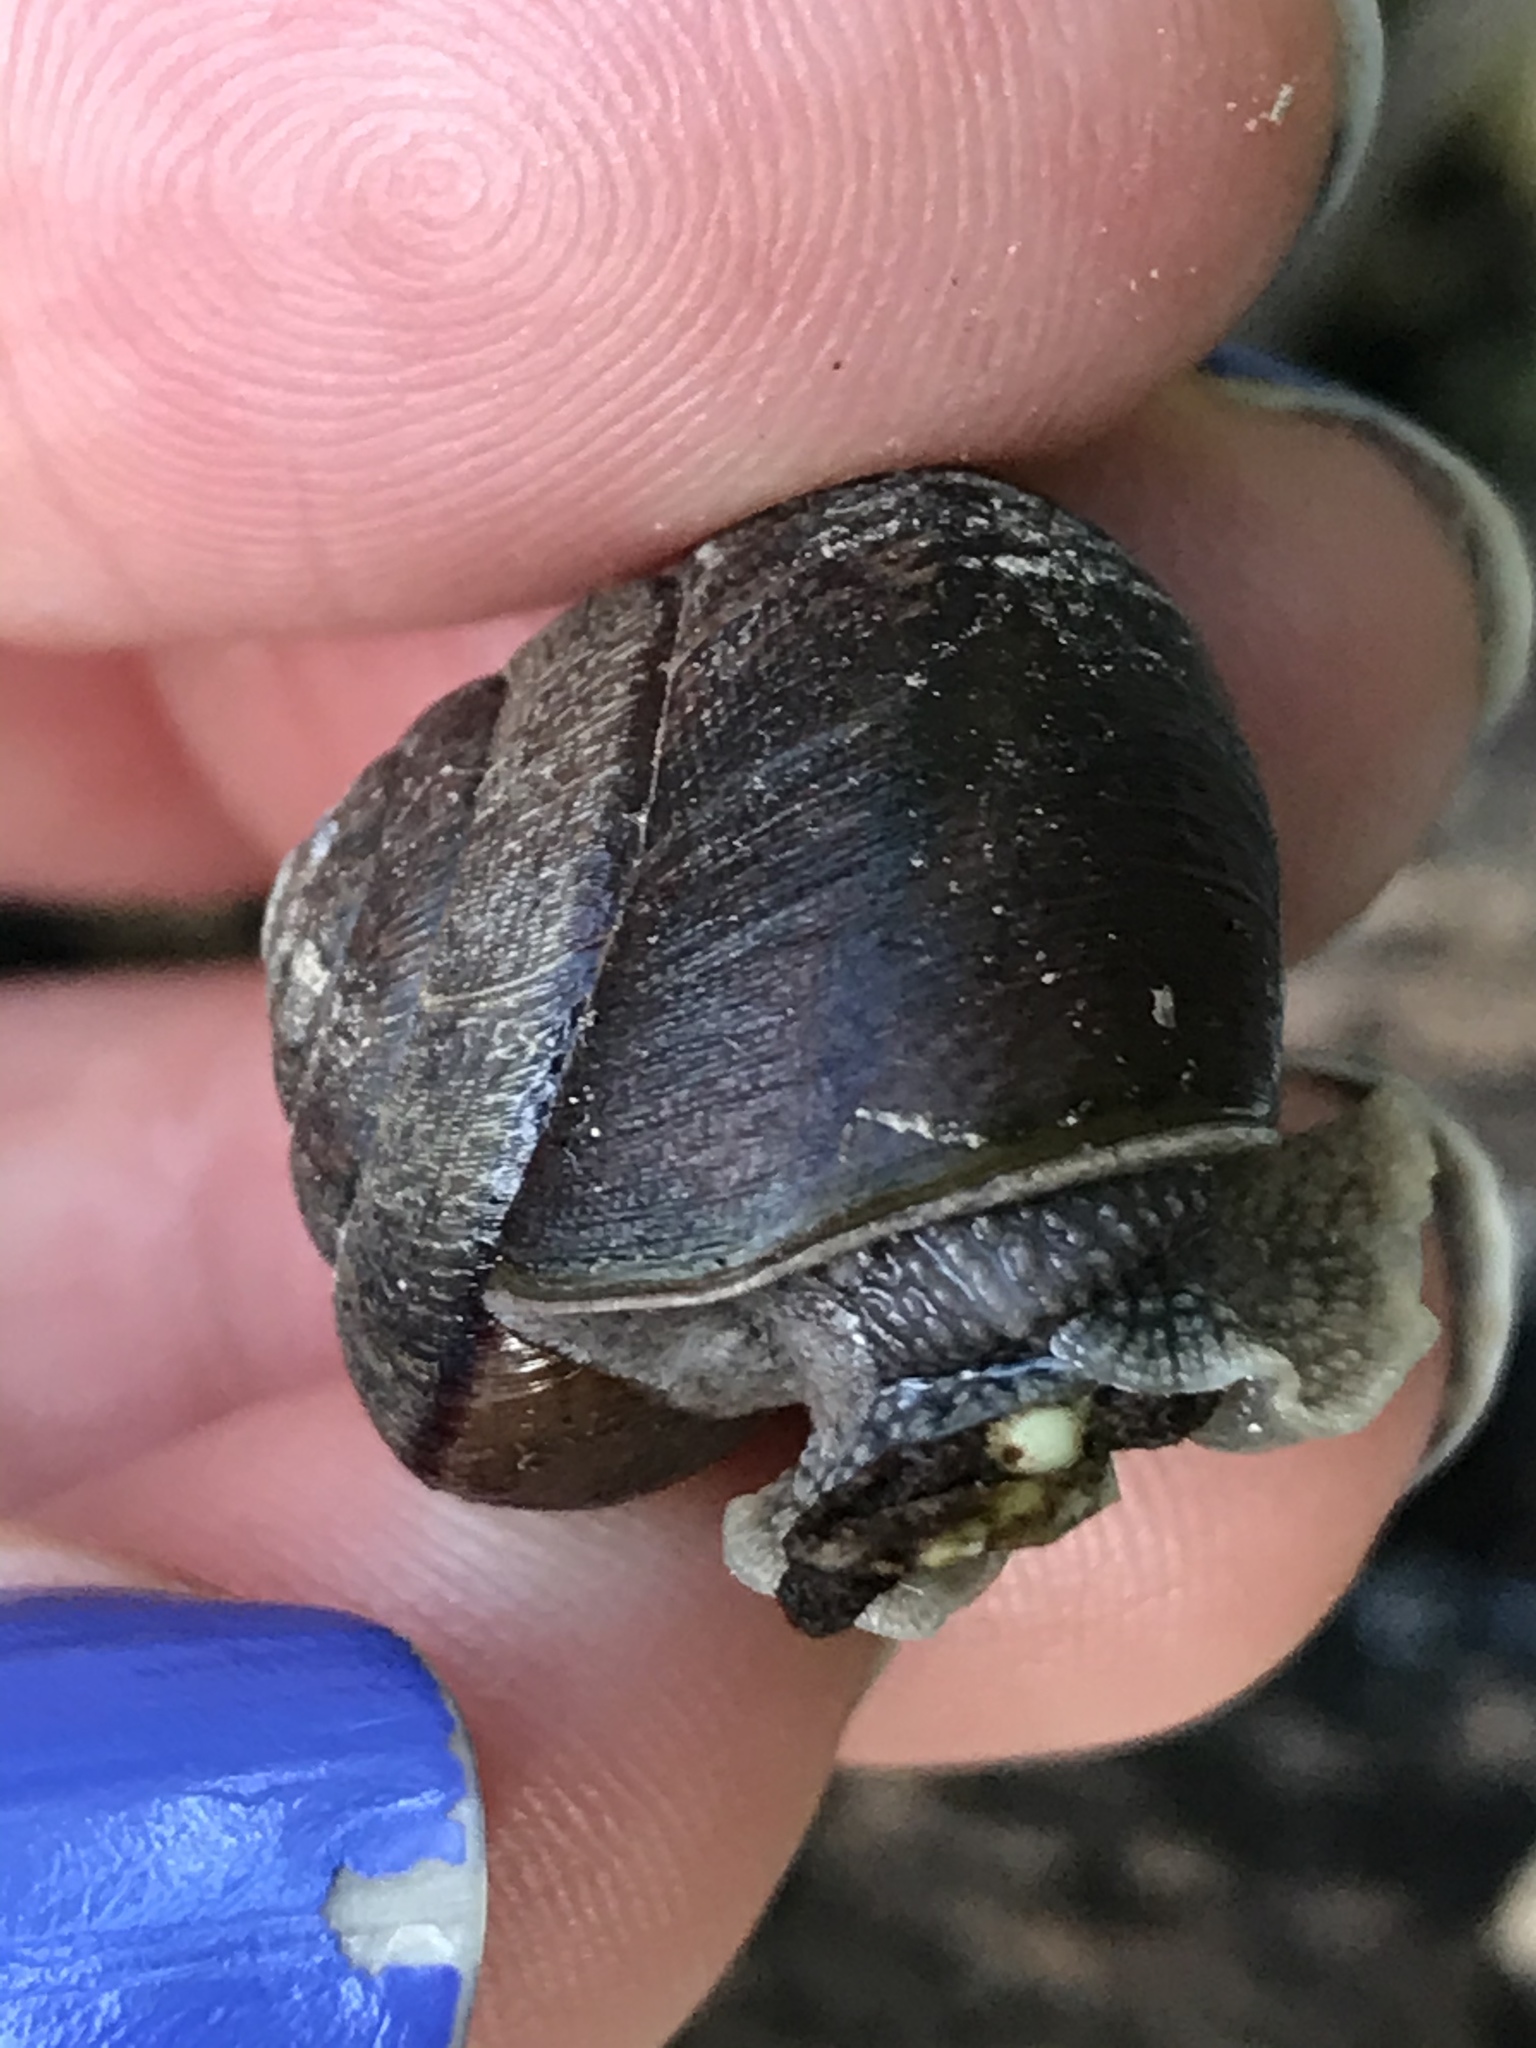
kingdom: Animalia
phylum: Mollusca
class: Gastropoda
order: Stylommatophora
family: Xanthonychidae
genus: Helminthoglypta
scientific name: Helminthoglypta arrosa
